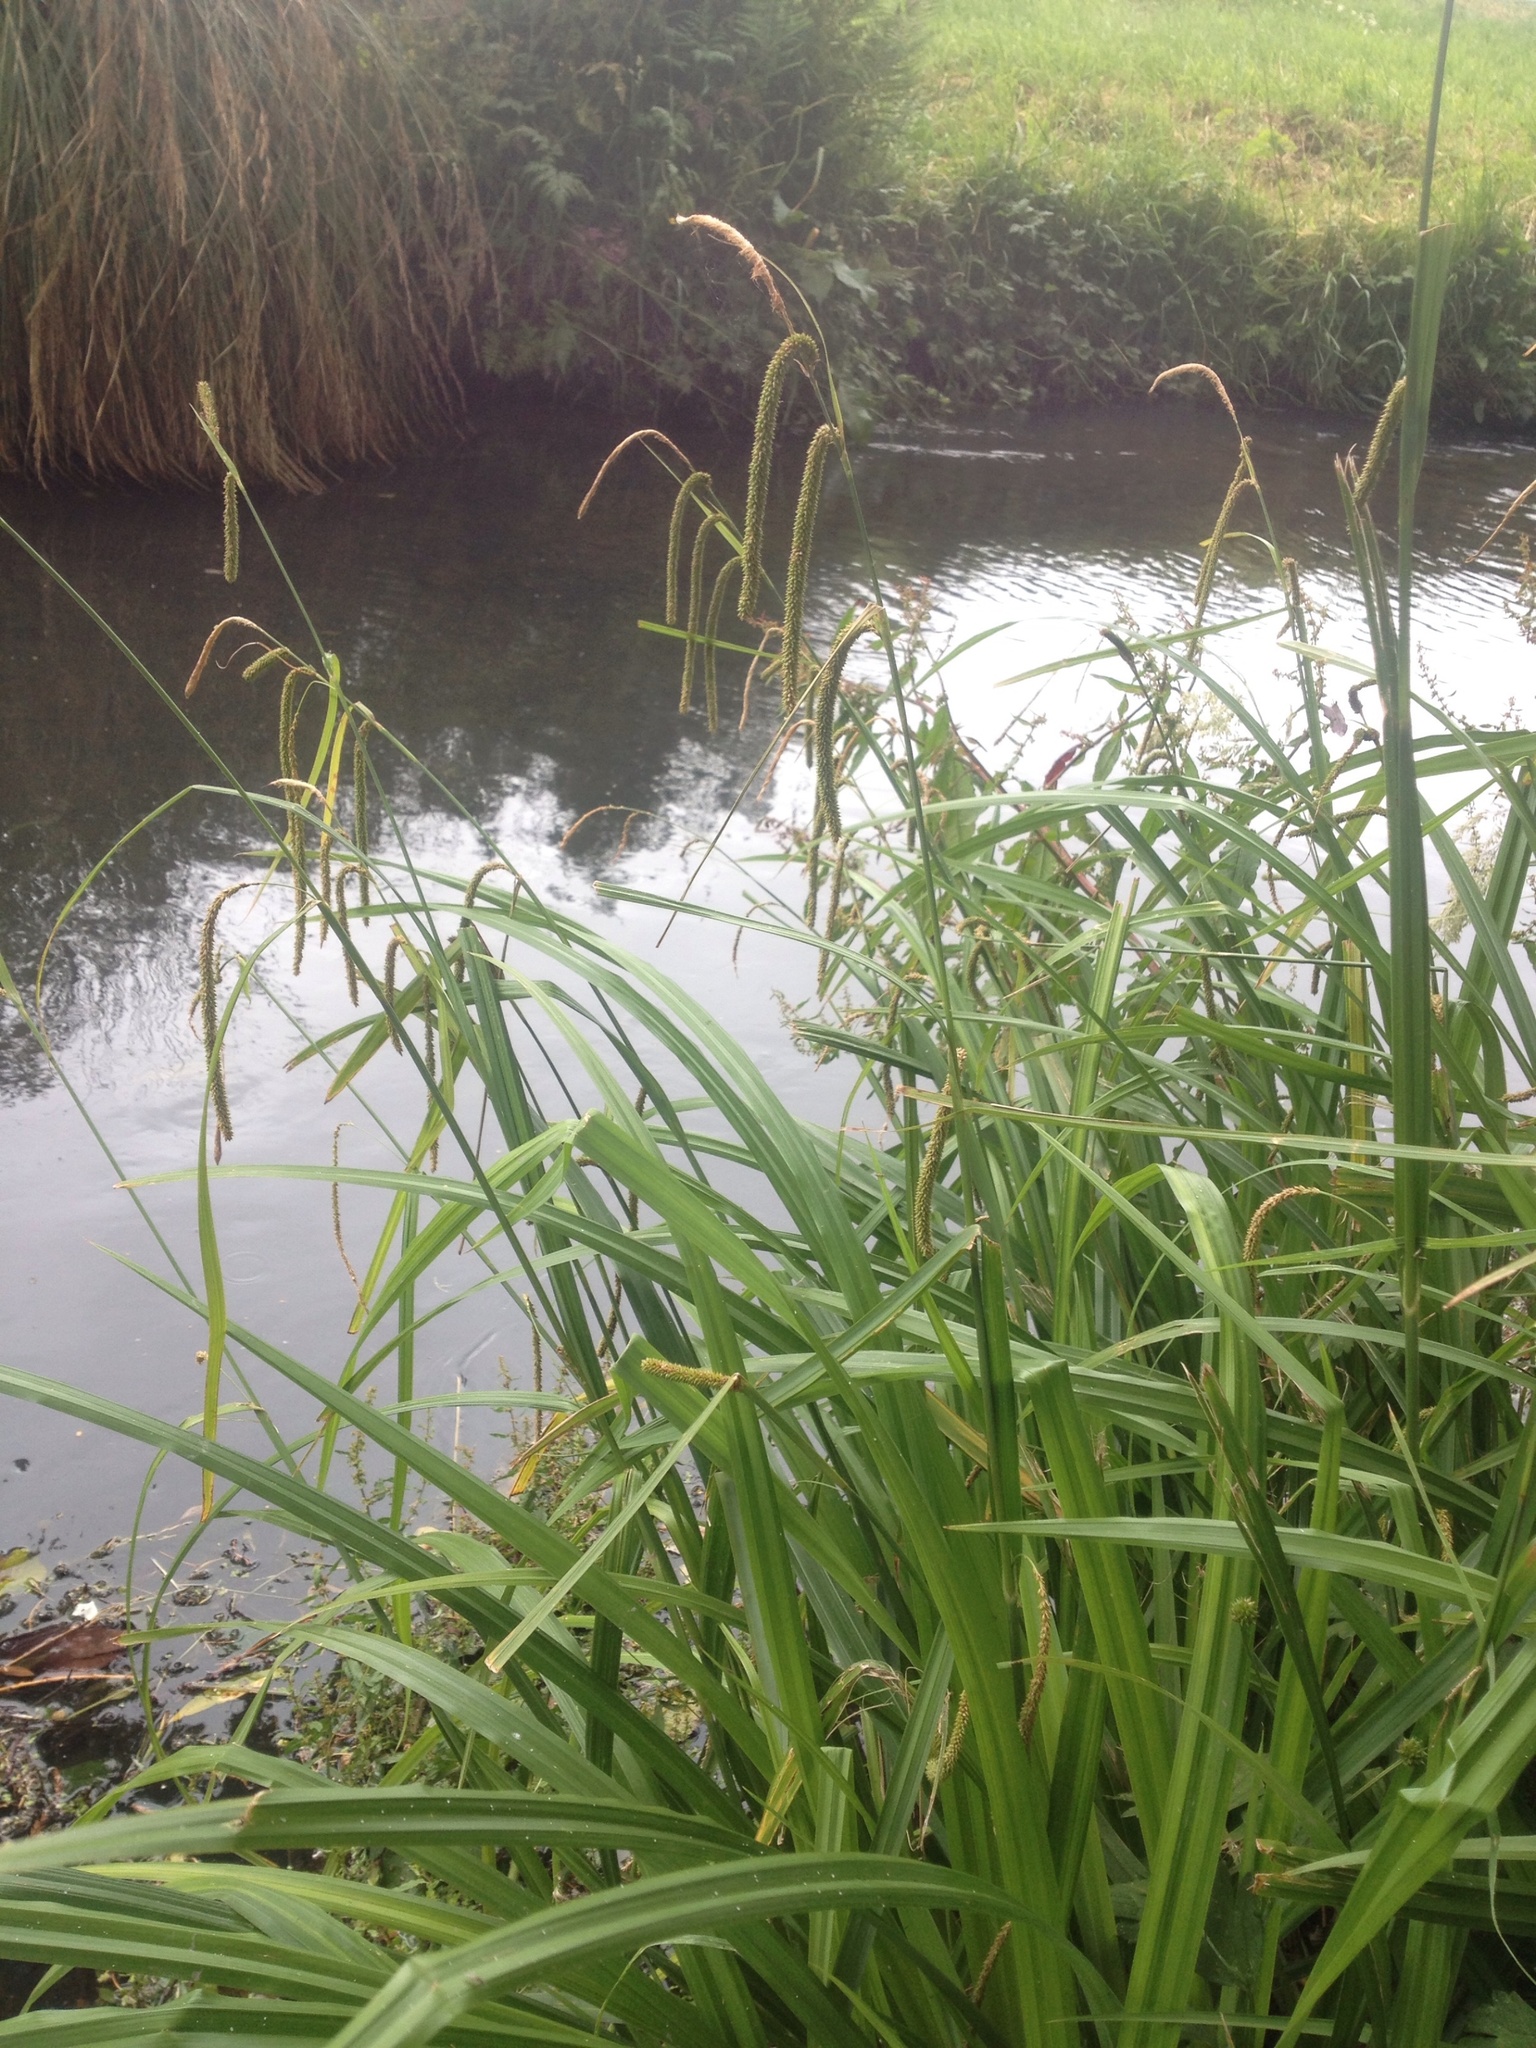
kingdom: Plantae
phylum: Tracheophyta
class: Liliopsida
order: Poales
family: Cyperaceae
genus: Carex
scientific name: Carex pendula
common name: Pendulous sedge
